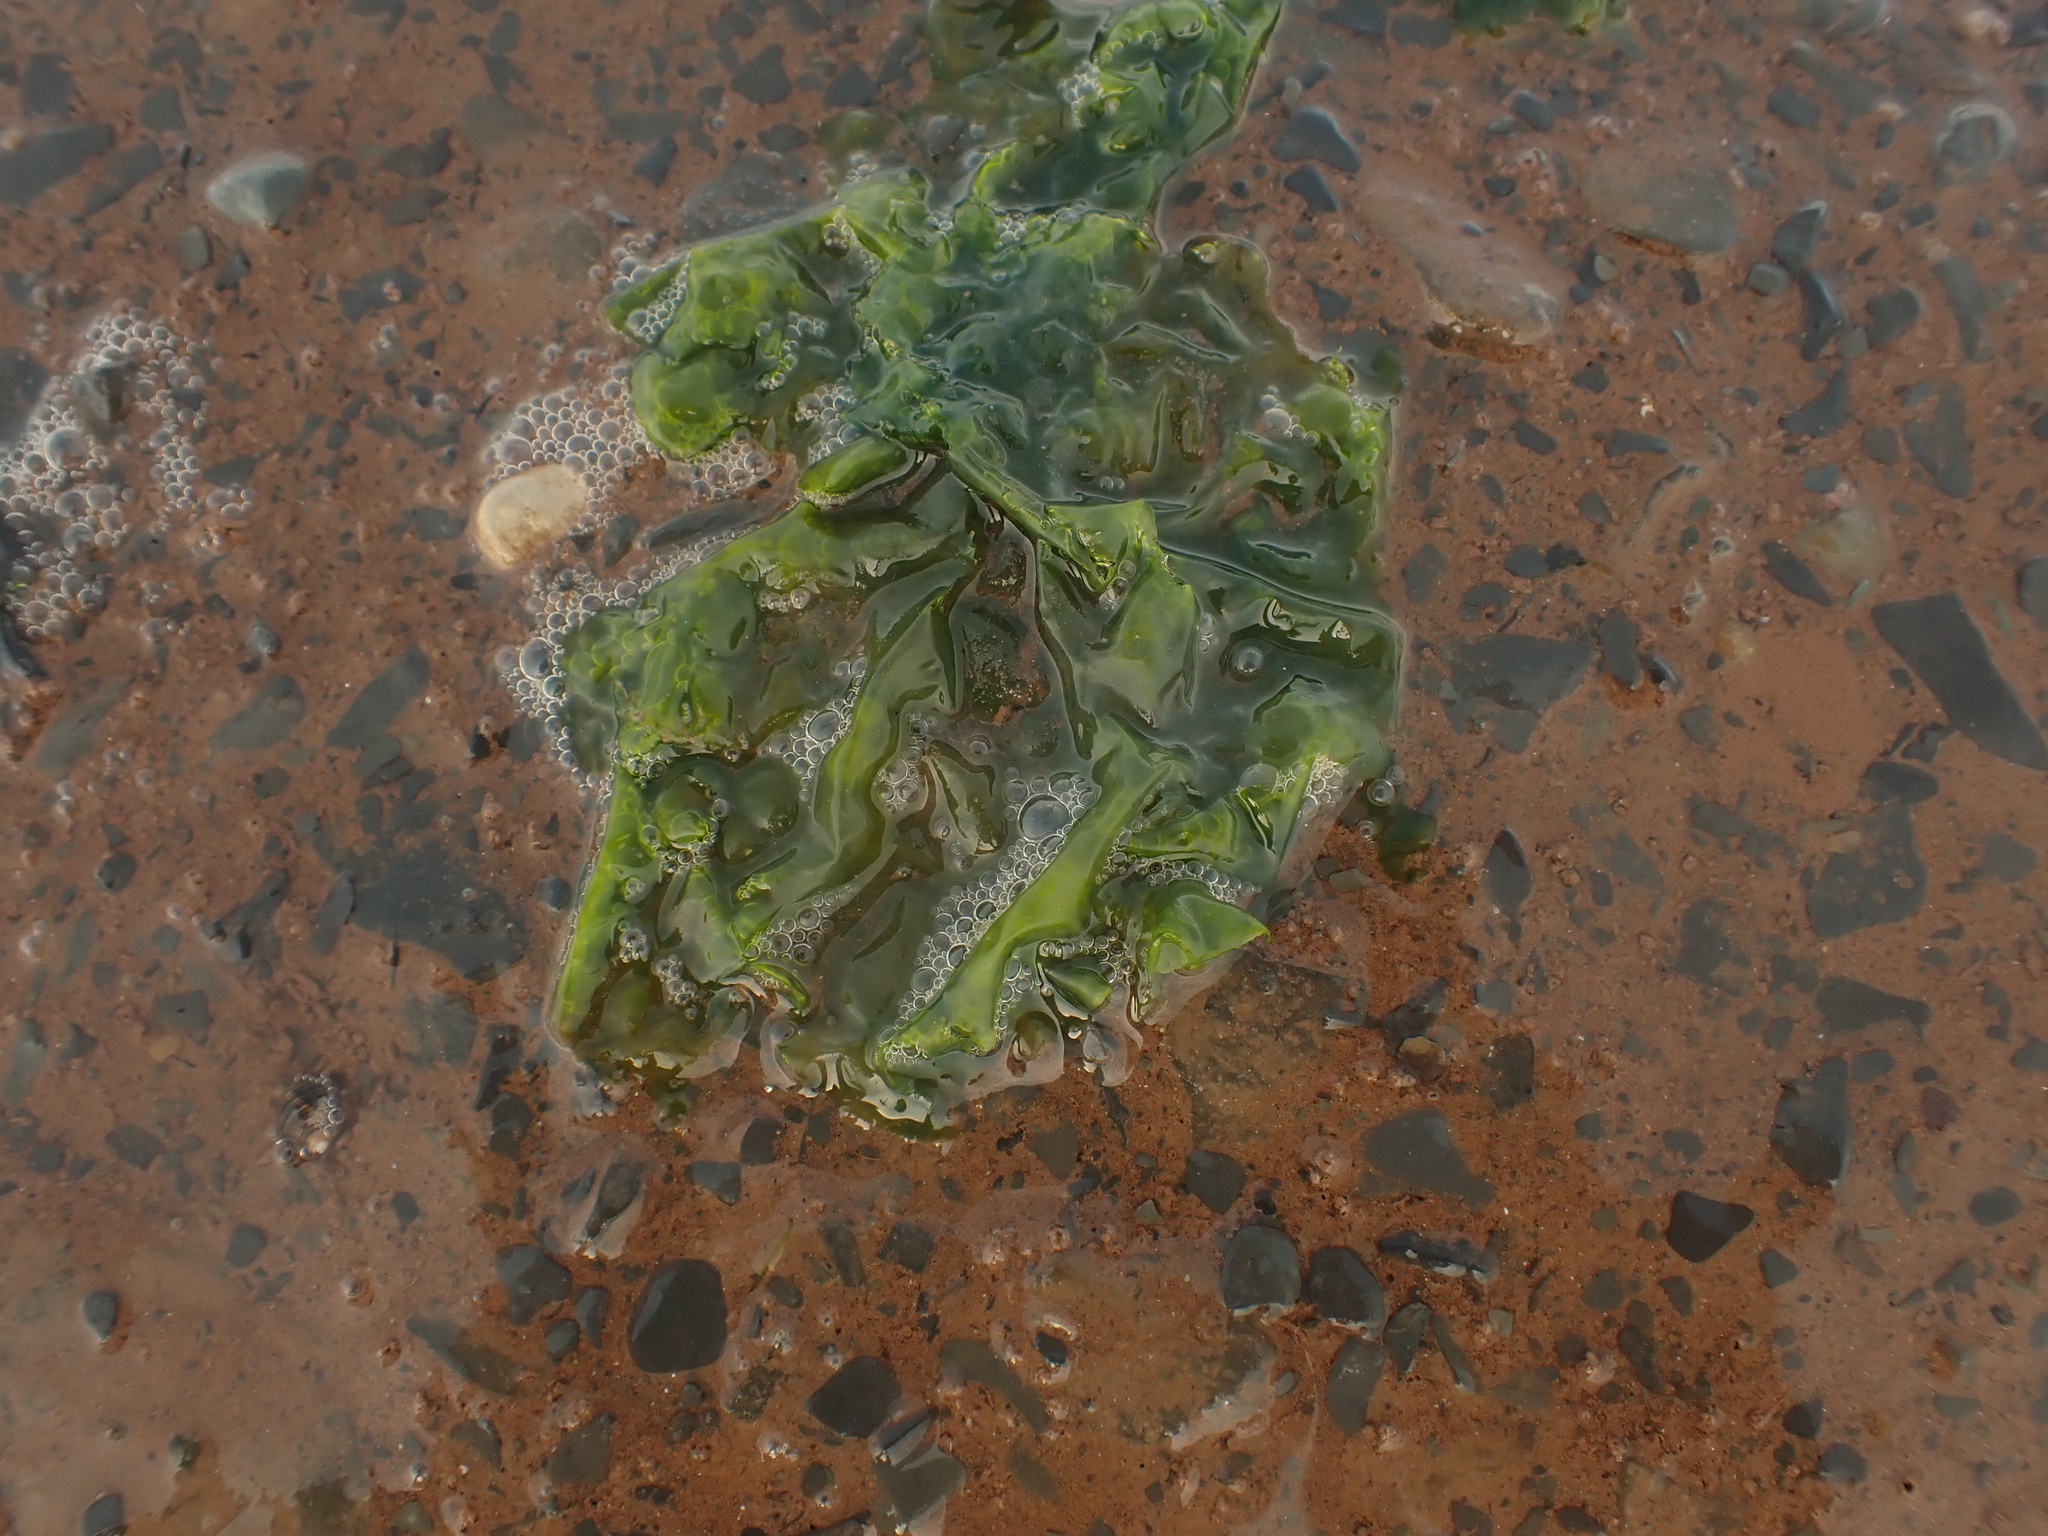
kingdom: Plantae
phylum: Chlorophyta
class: Ulvophyceae
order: Ulvales
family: Ulvaceae
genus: Ulva
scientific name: Ulva lactuca
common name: Sea lettuce
